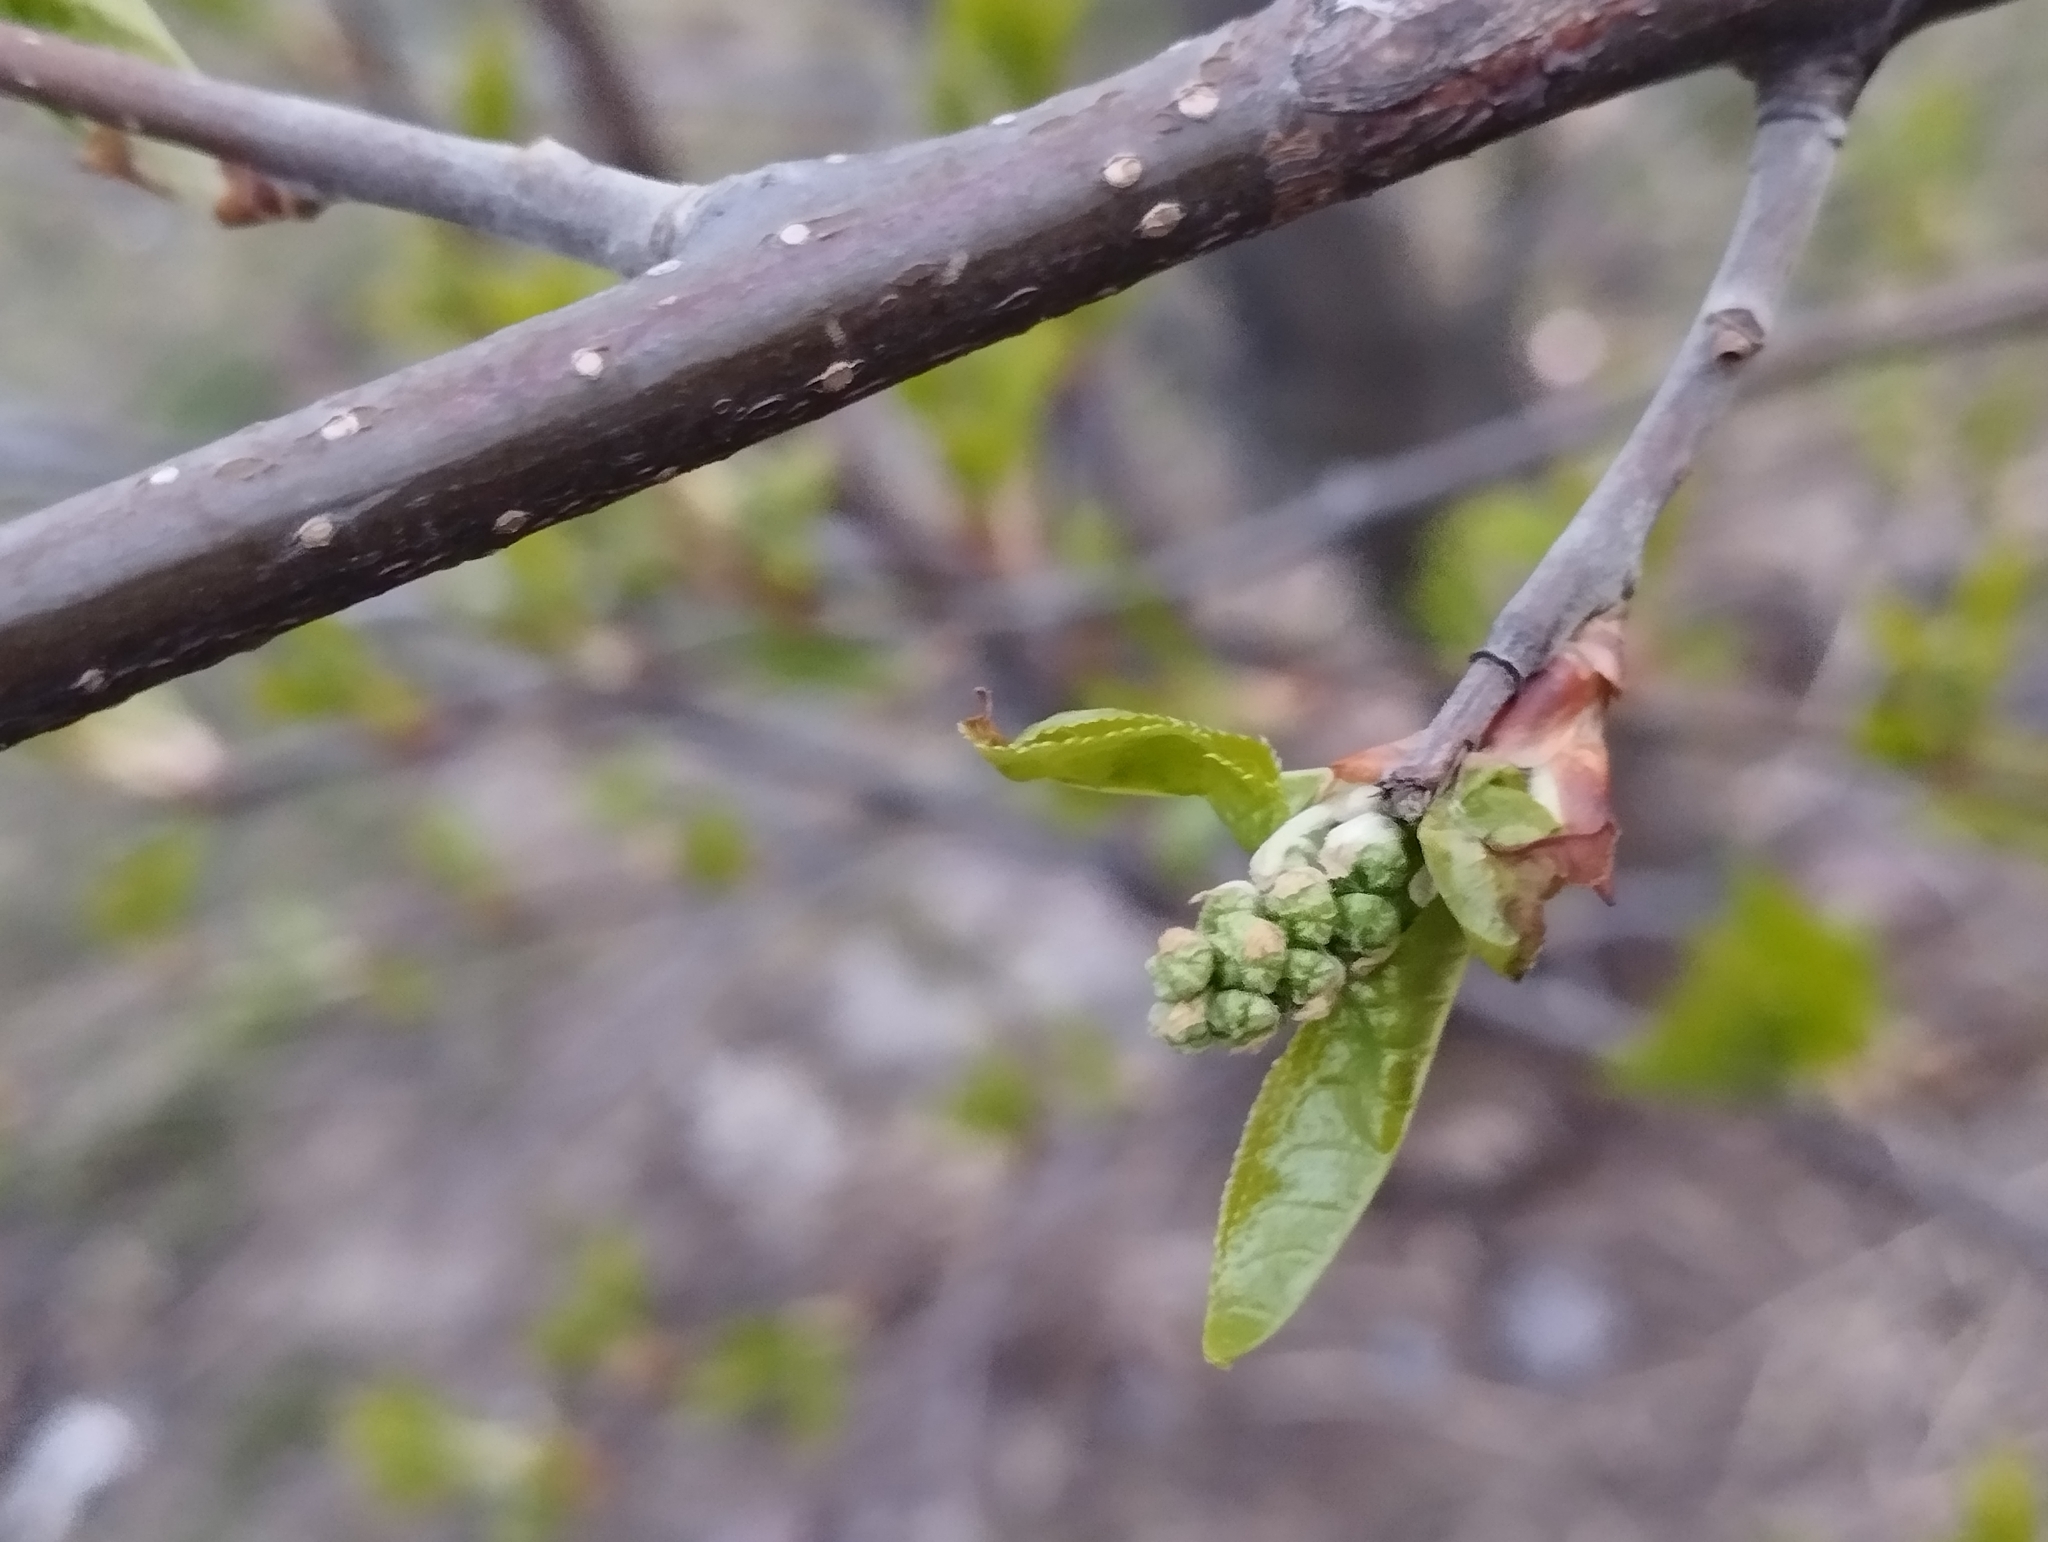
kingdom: Plantae
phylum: Tracheophyta
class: Magnoliopsida
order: Rosales
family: Rosaceae
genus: Prunus
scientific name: Prunus padus
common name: Bird cherry
